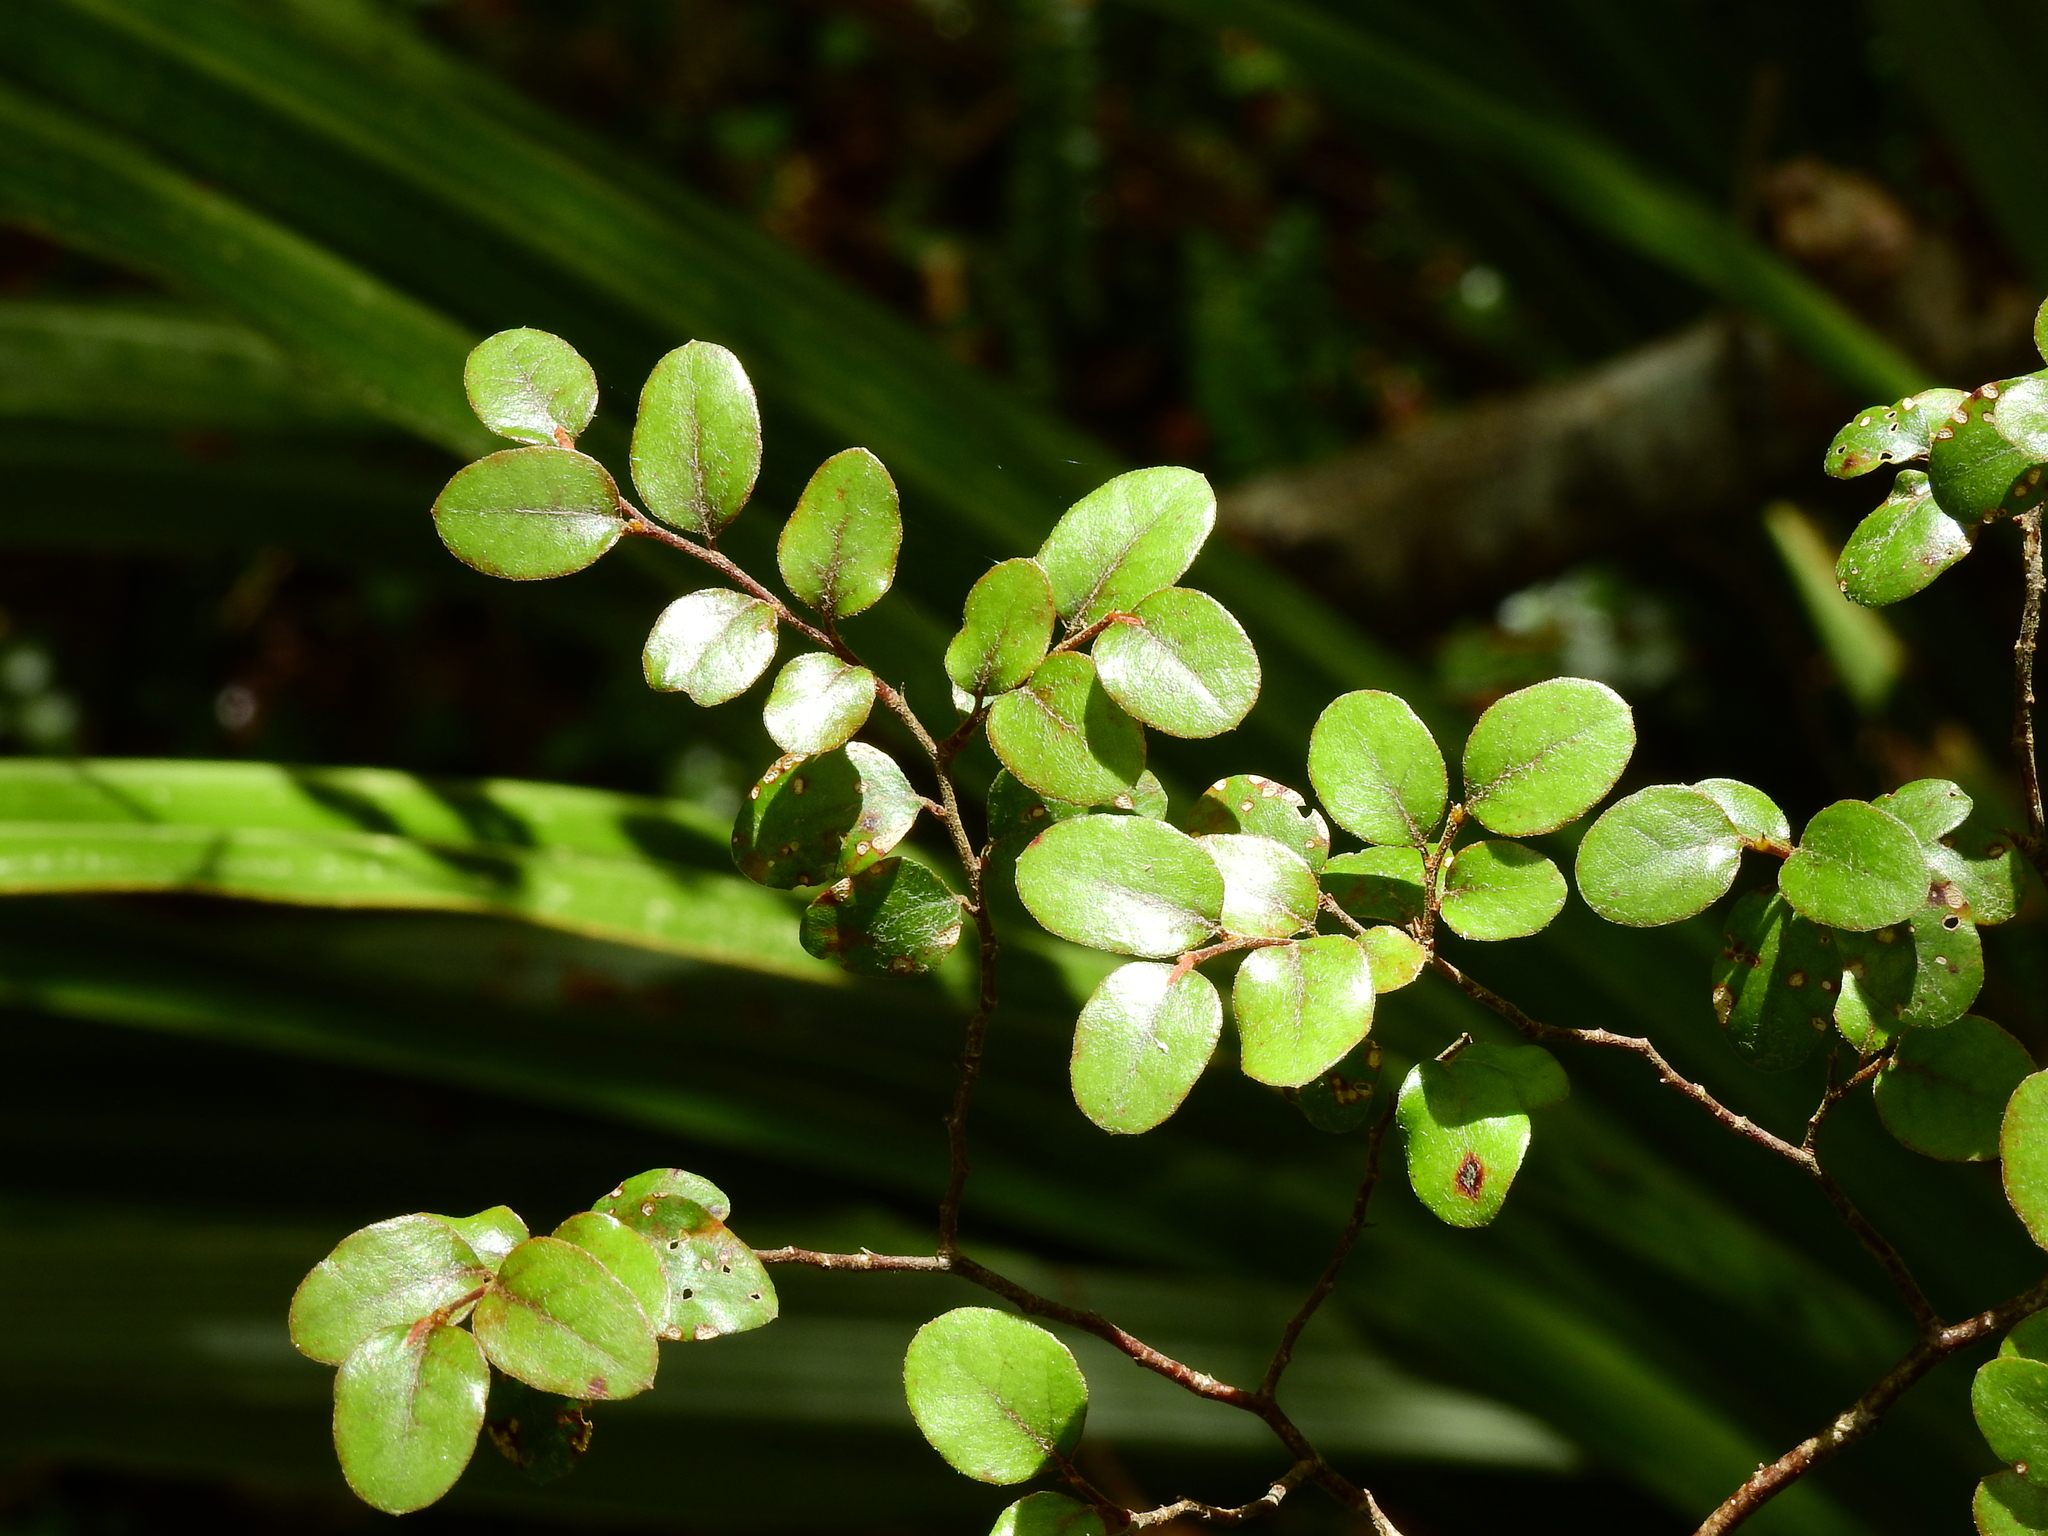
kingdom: Plantae
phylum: Tracheophyta
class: Magnoliopsida
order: Fagales
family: Nothofagaceae
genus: Nothofagus
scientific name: Nothofagus solandri
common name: Black beech
